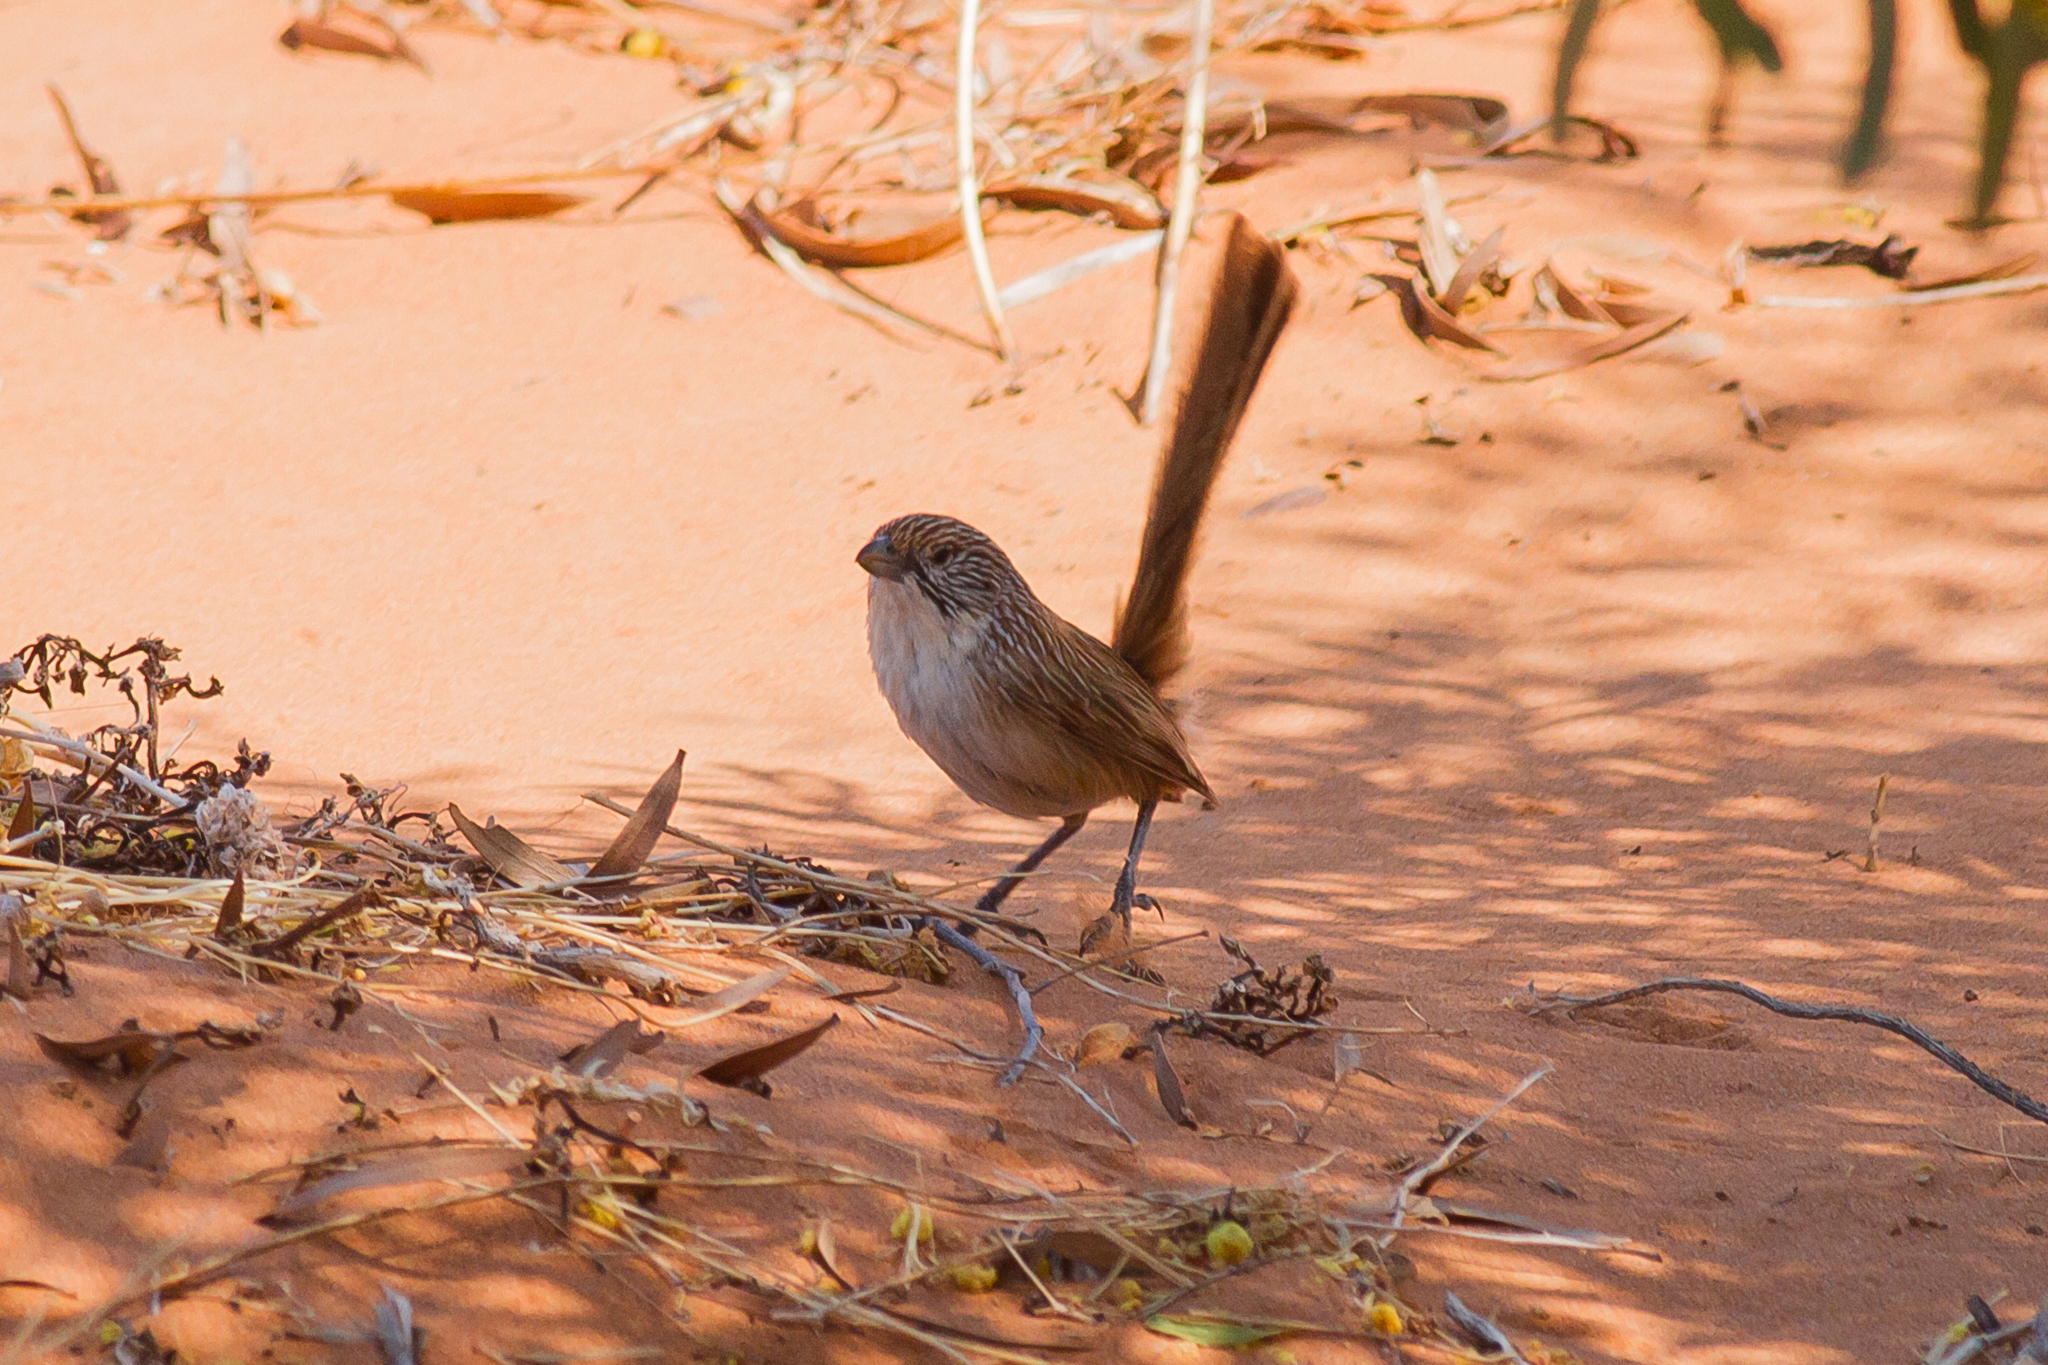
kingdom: Animalia
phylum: Chordata
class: Aves
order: Passeriformes
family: Maluridae
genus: Amytornis
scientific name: Amytornis goyderi
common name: Eyrean grasswren
